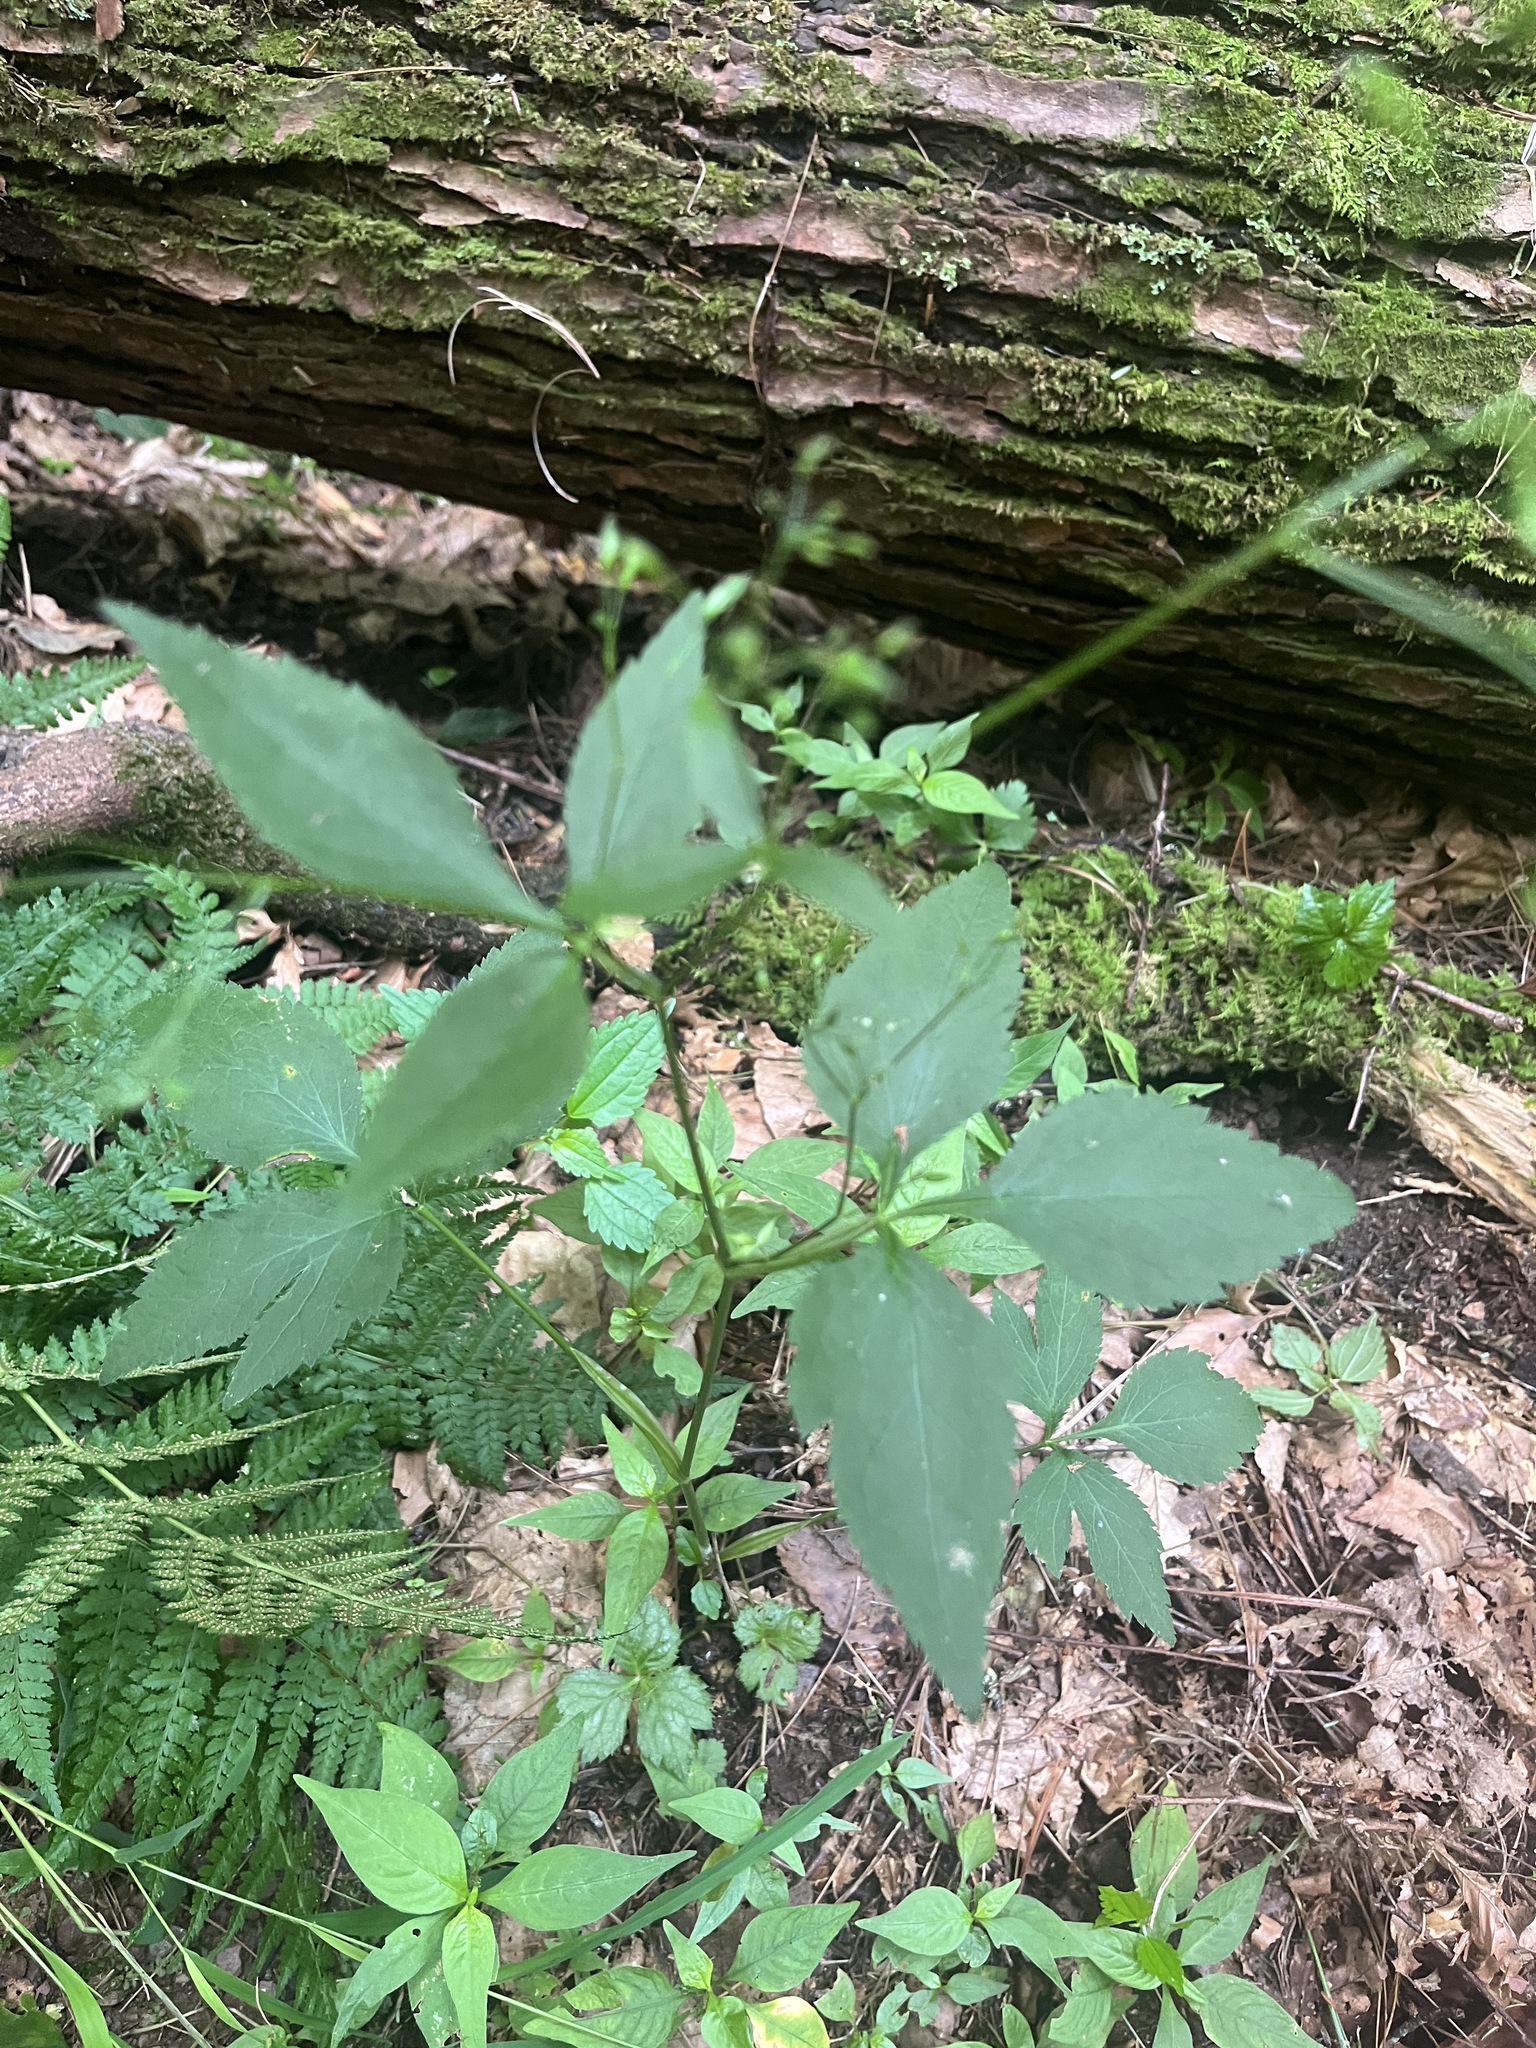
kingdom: Plantae
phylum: Tracheophyta
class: Magnoliopsida
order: Apiales
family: Apiaceae
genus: Cryptotaenia
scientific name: Cryptotaenia canadensis
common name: Honewort
